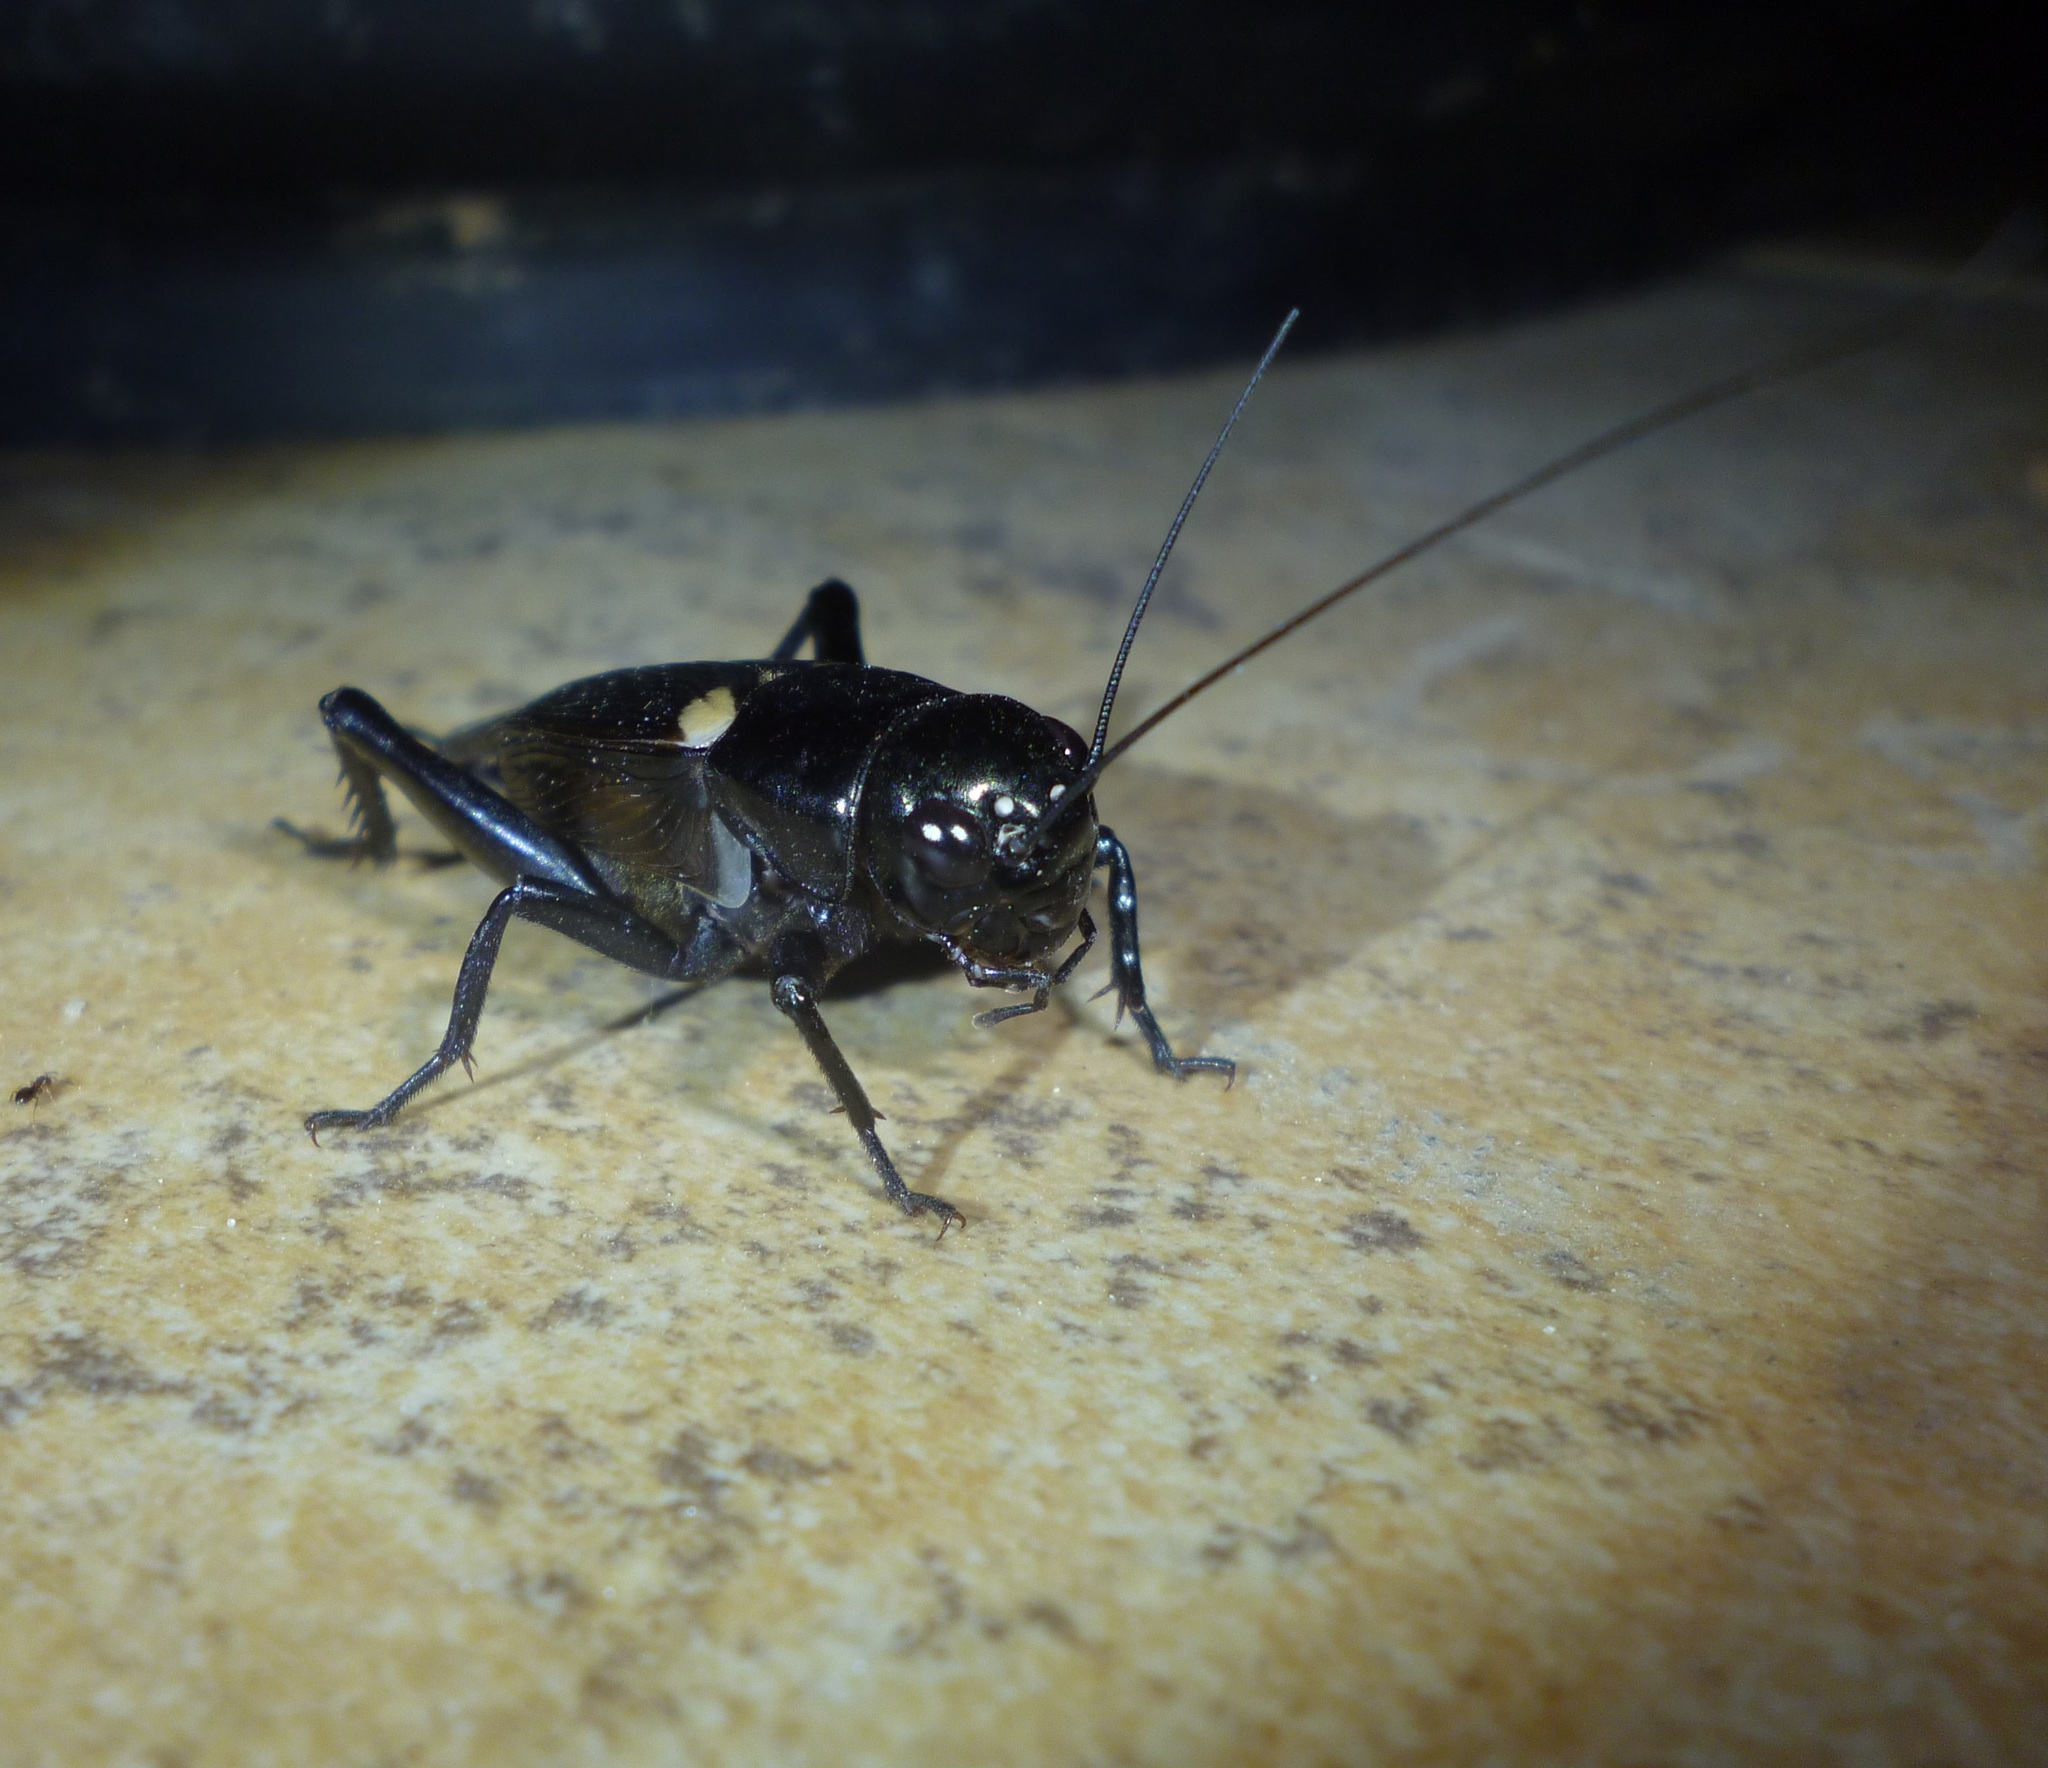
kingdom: Animalia
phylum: Arthropoda
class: Insecta
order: Orthoptera
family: Gryllidae
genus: Gryllus
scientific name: Gryllus bimaculatus
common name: Two-spotted cricket
